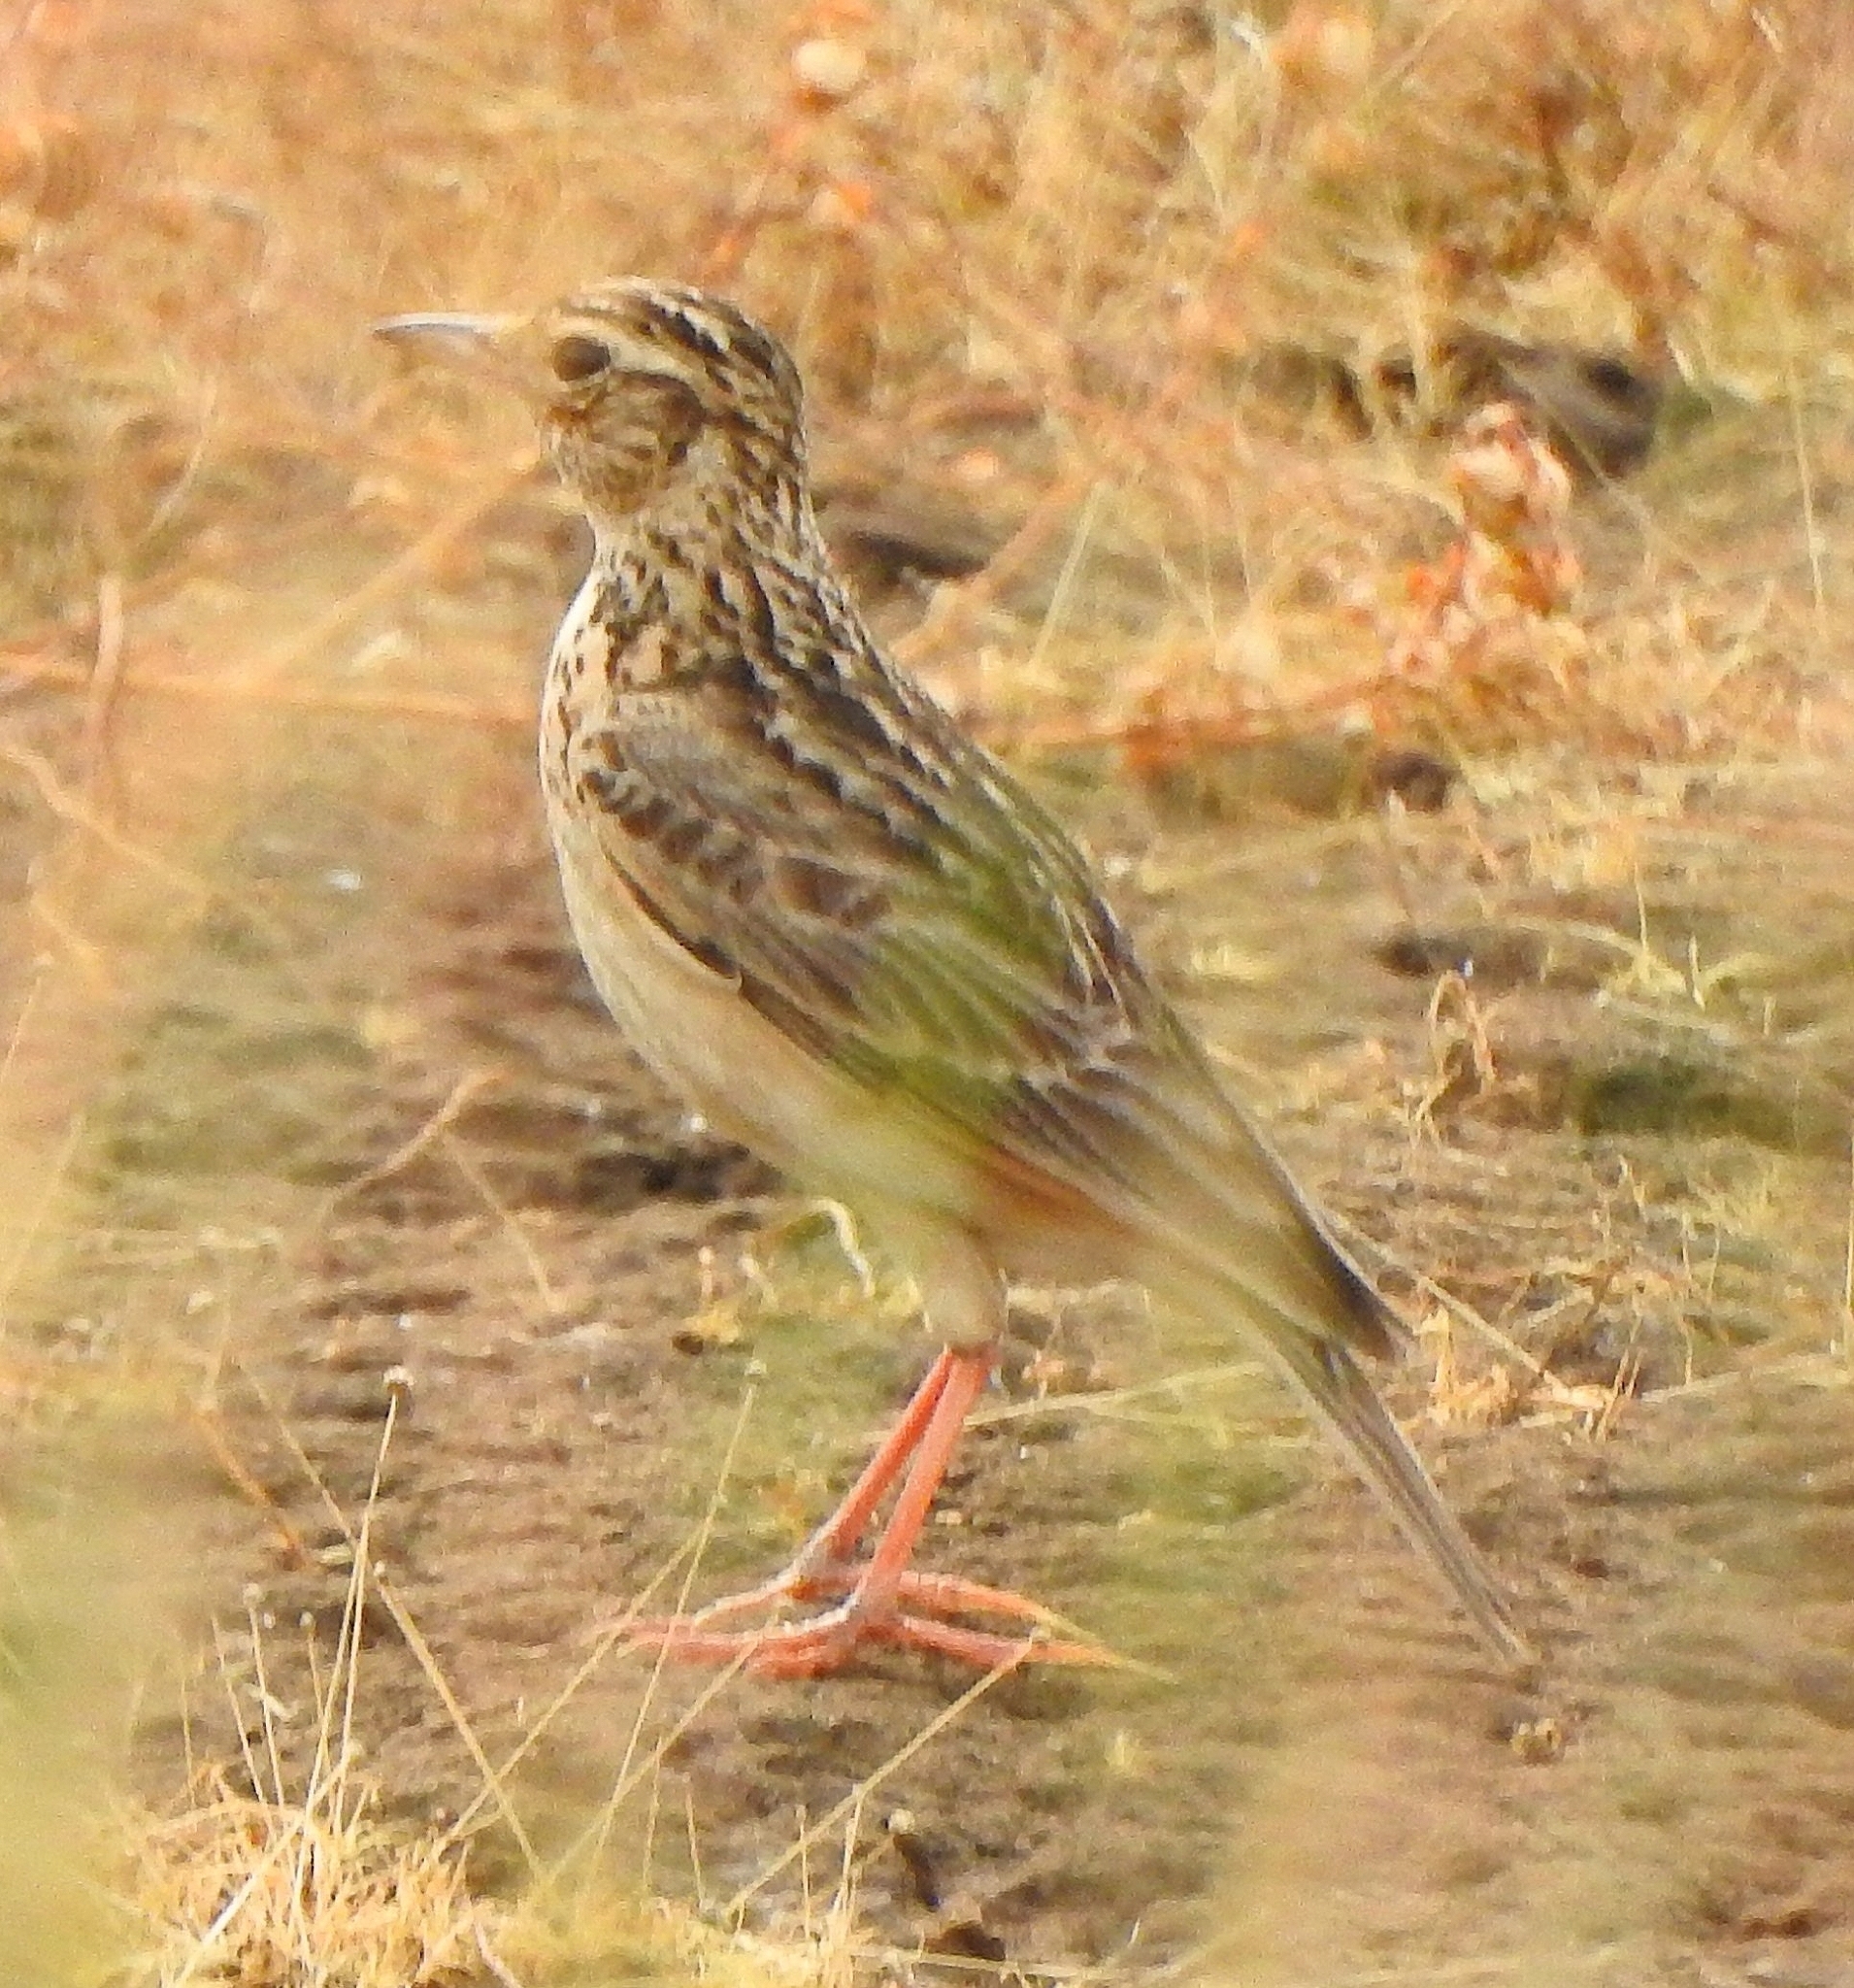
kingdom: Animalia
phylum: Chordata
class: Aves
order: Passeriformes
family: Alaudidae
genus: Alauda
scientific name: Alauda gulgula
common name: Oriental skylark
